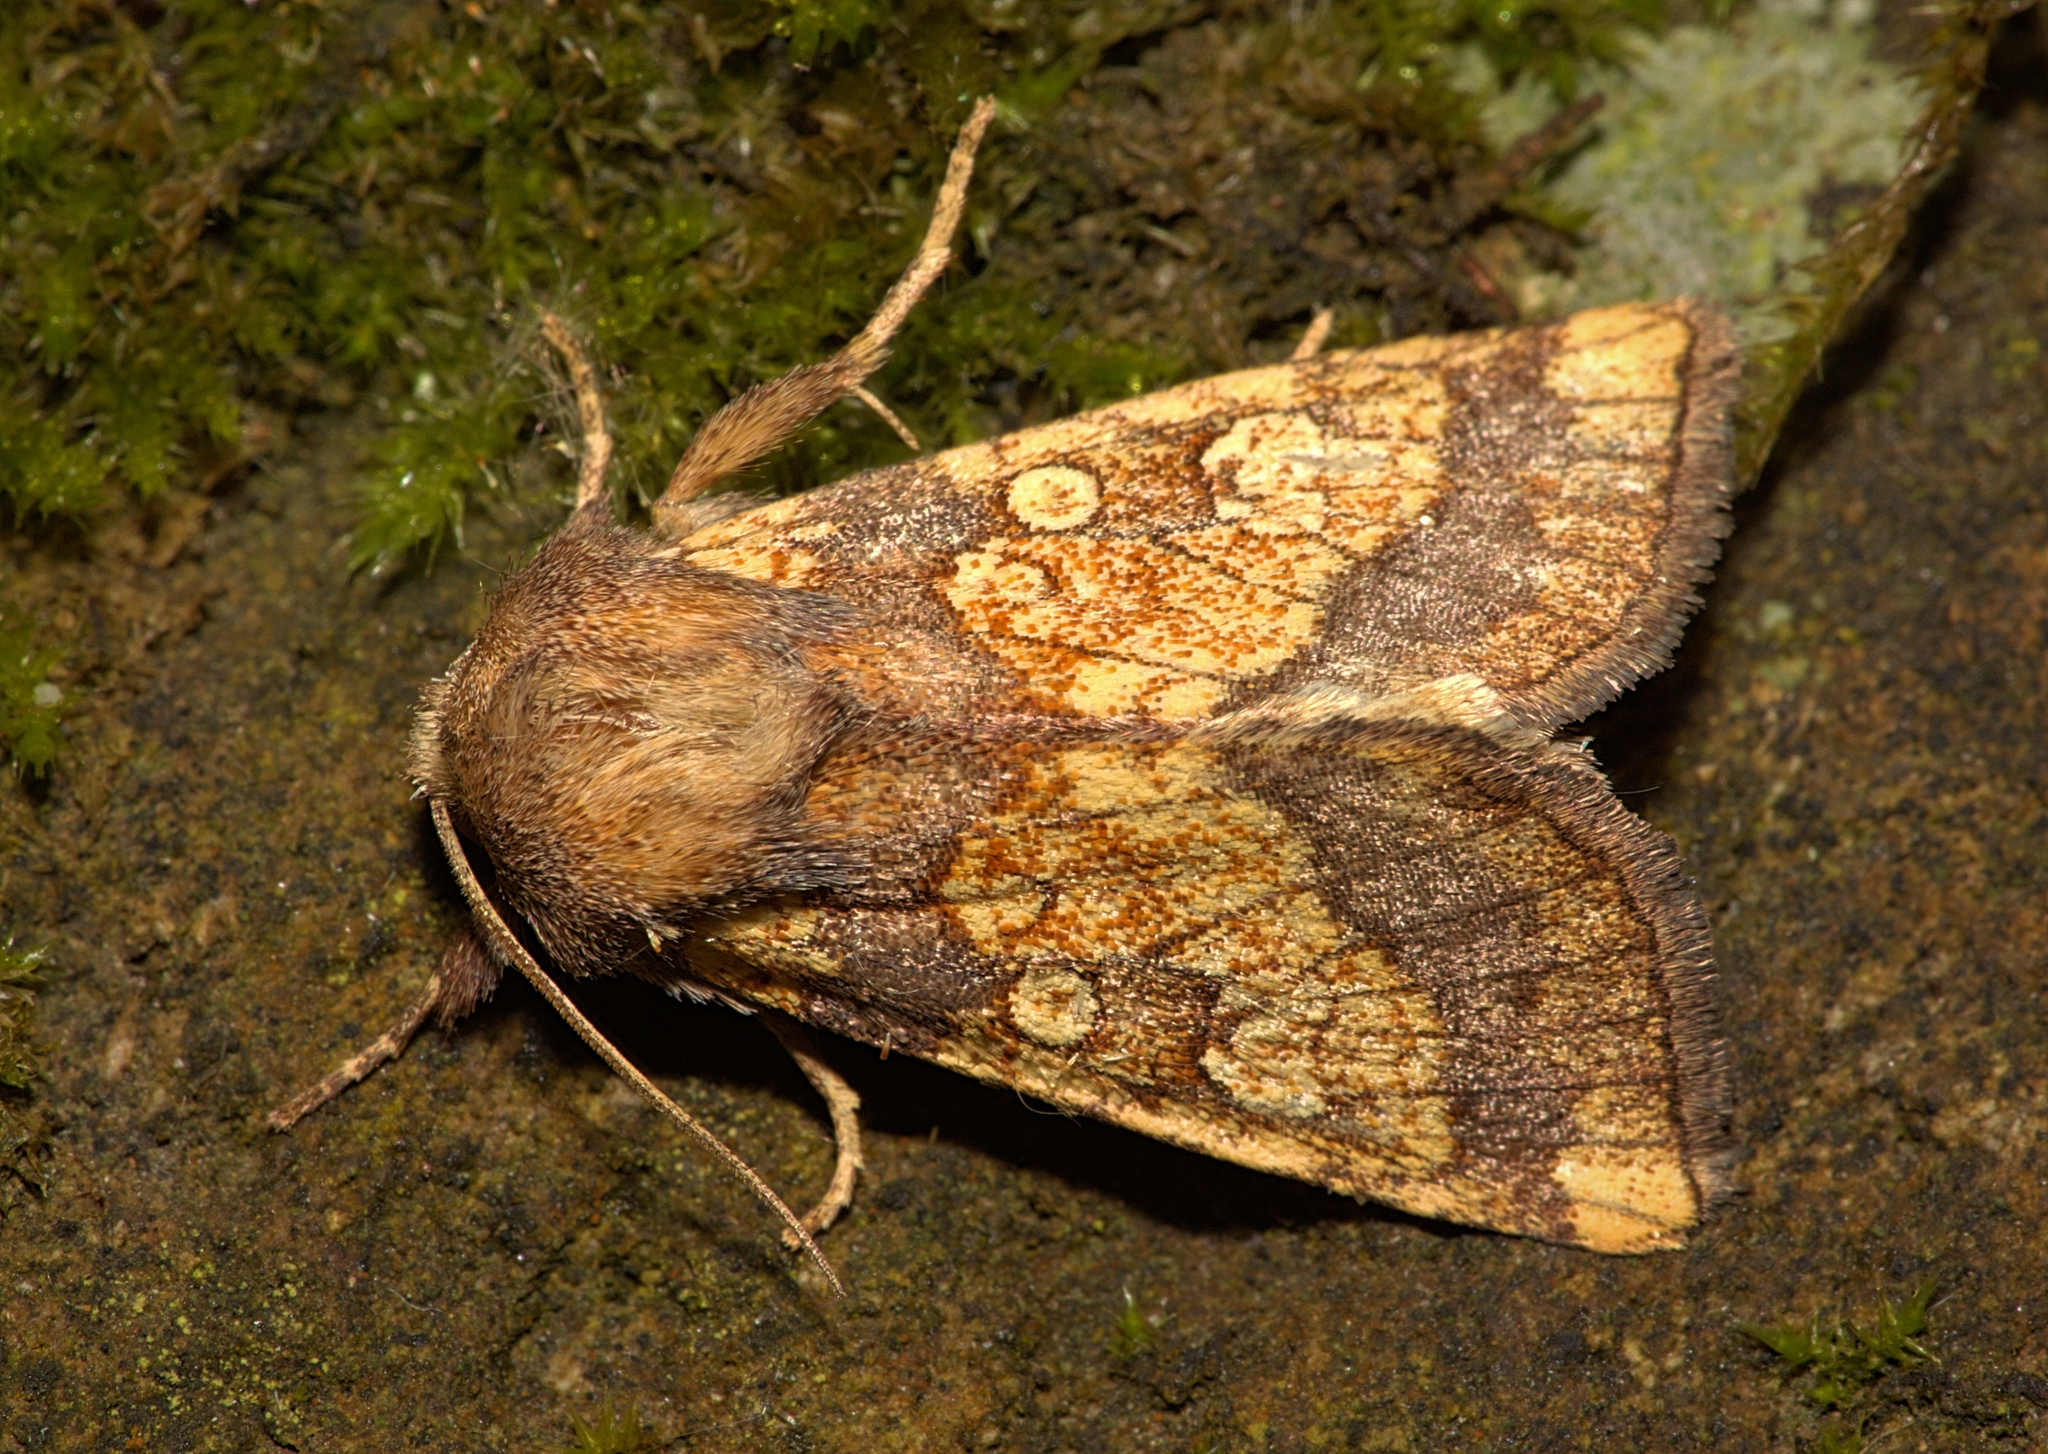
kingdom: Animalia
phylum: Arthropoda
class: Insecta
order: Lepidoptera
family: Noctuidae
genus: Gortyna
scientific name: Gortyna flavago
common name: Frosted orange
